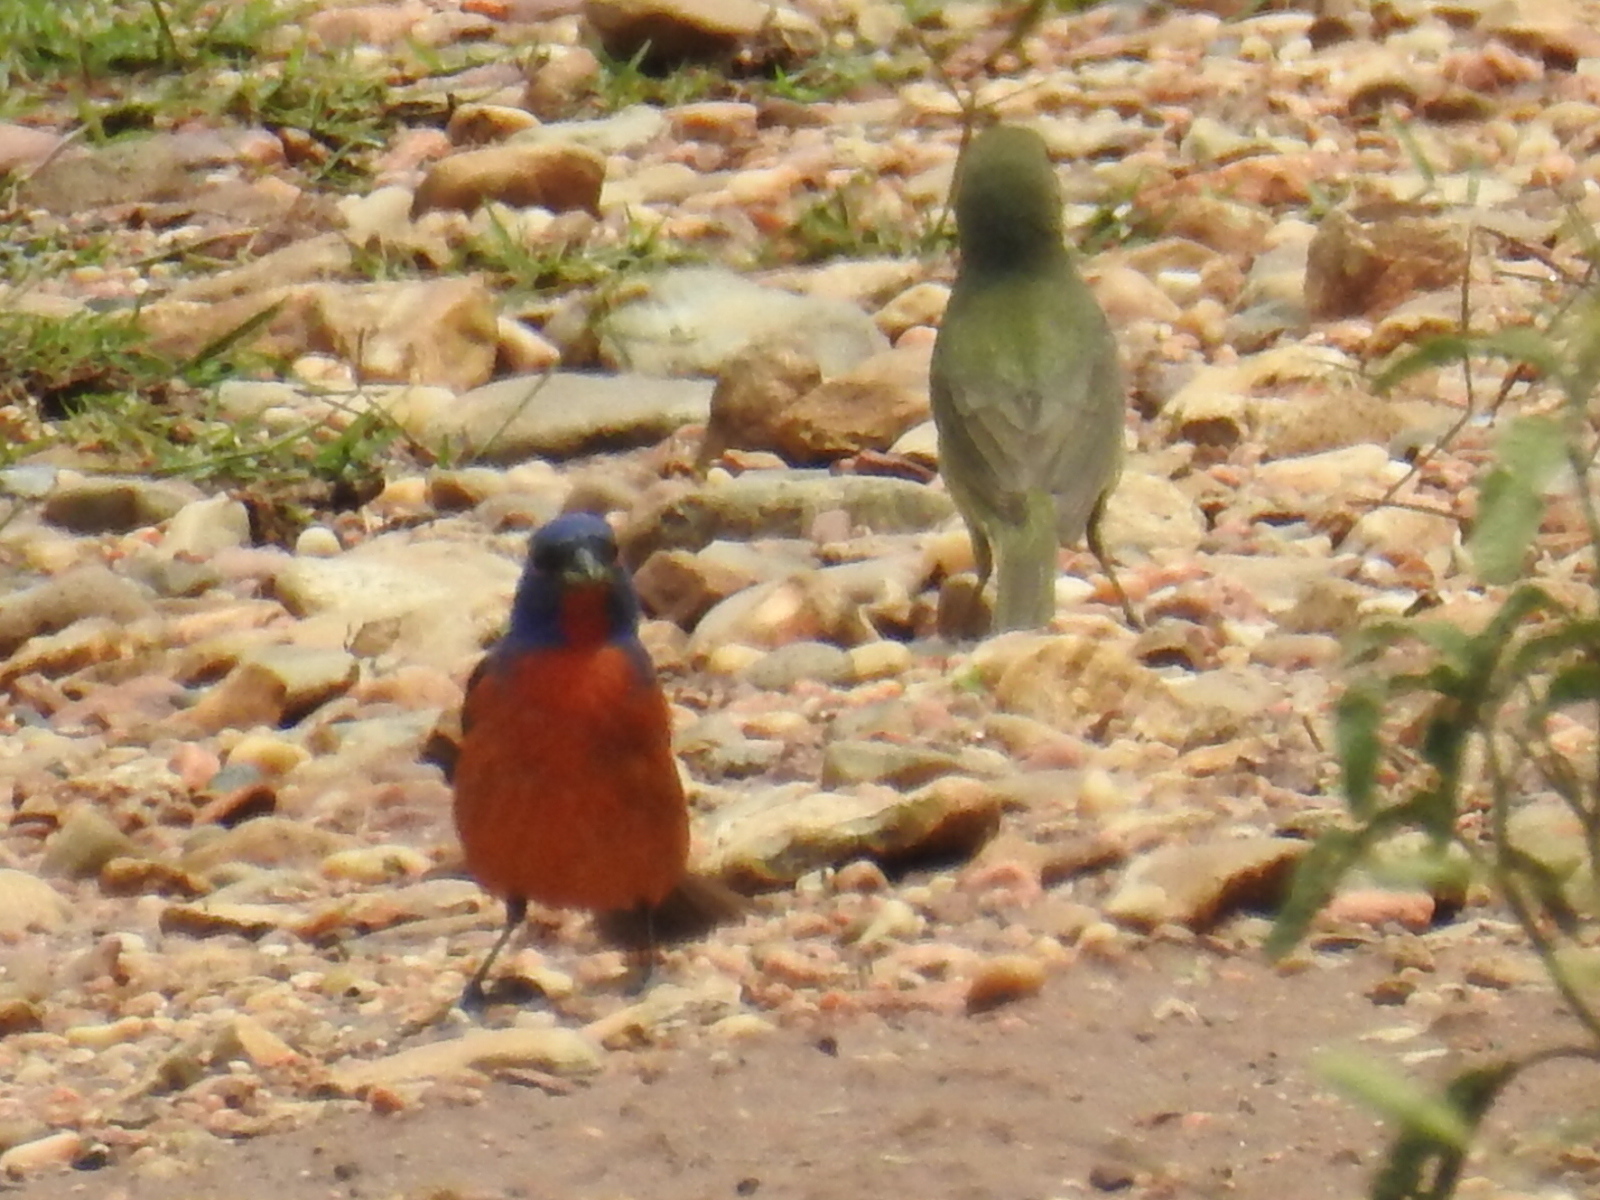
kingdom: Animalia
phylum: Chordata
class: Aves
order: Passeriformes
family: Cardinalidae
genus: Passerina
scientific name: Passerina ciris
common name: Painted bunting
